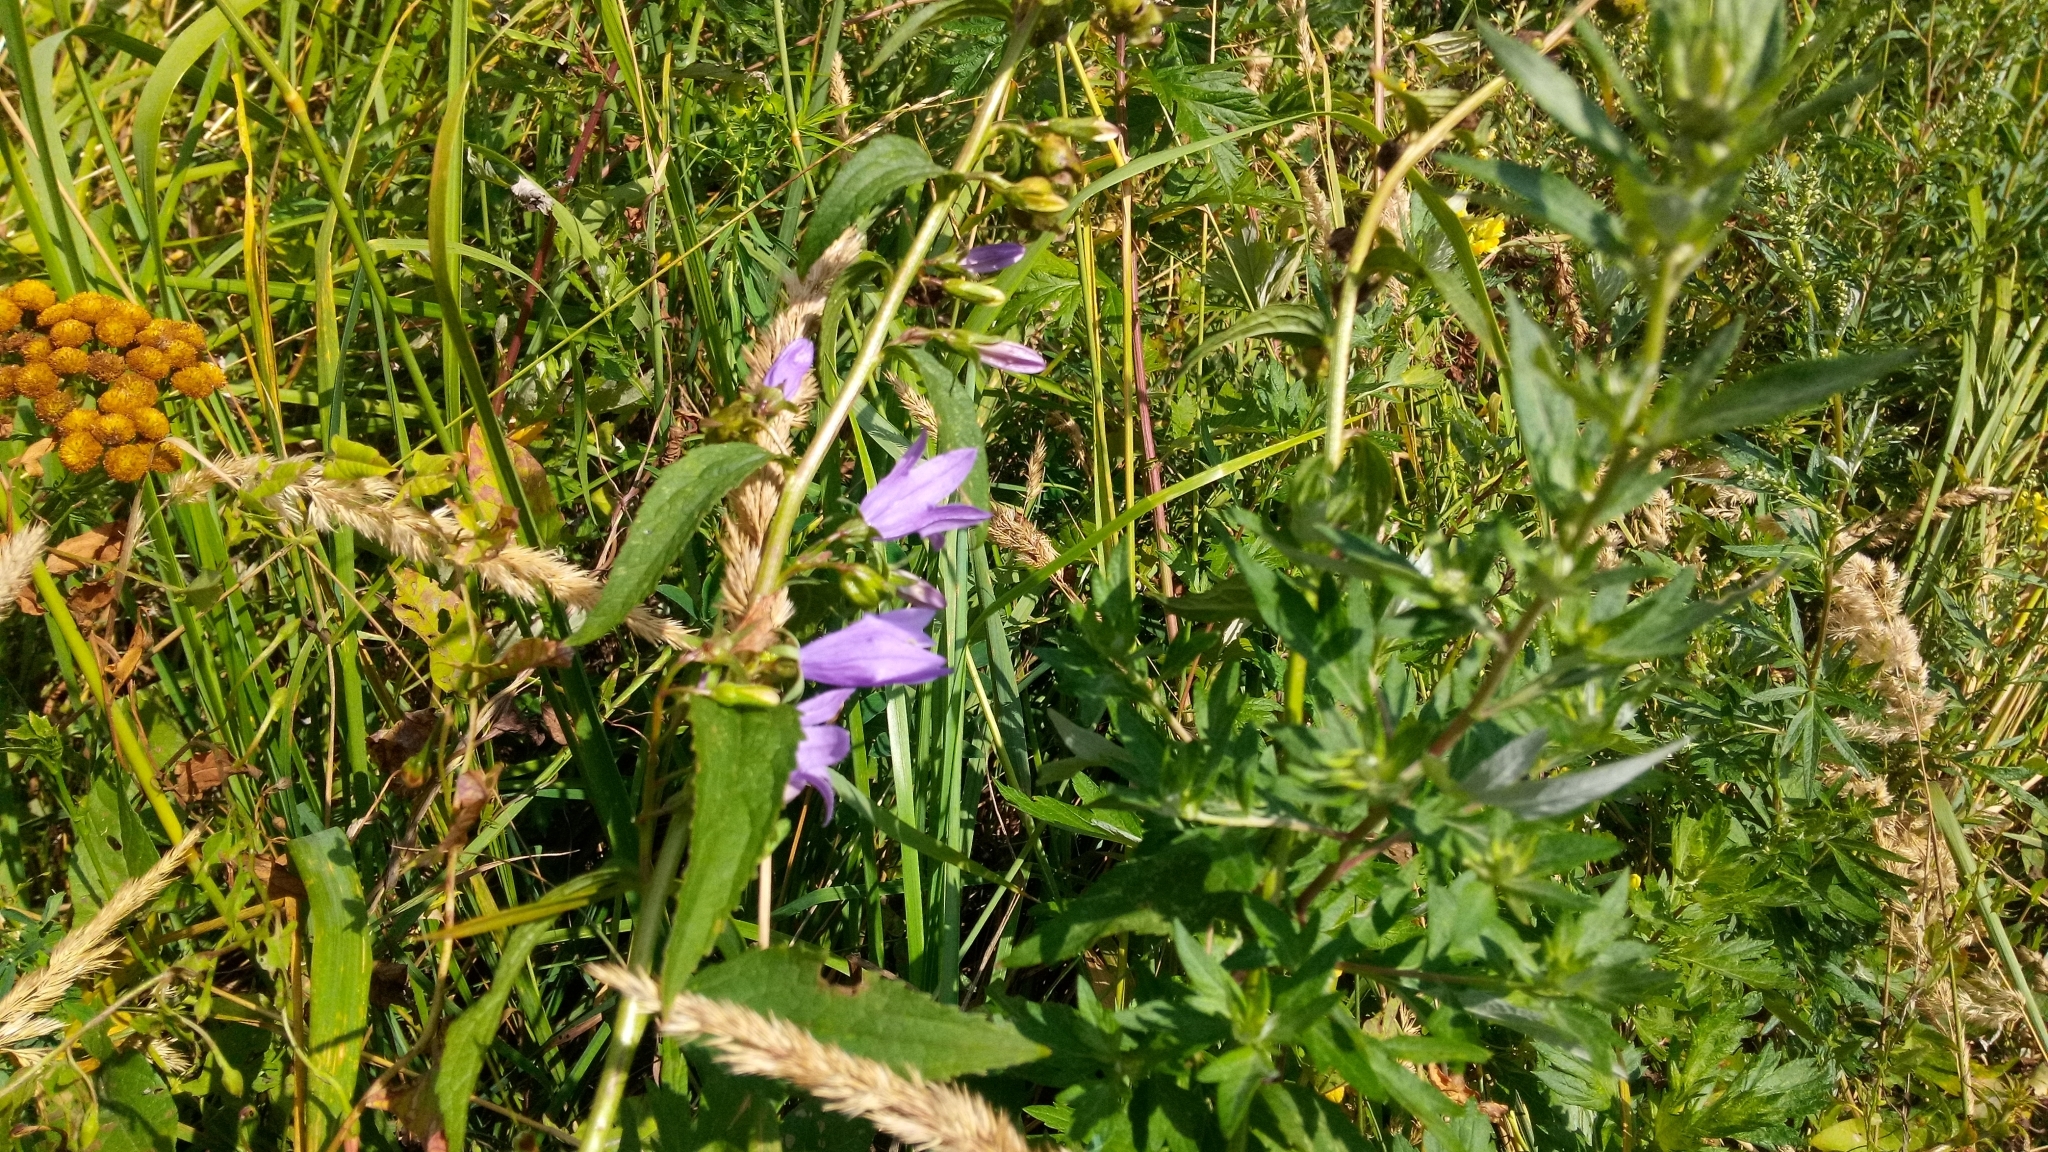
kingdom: Plantae
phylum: Tracheophyta
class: Magnoliopsida
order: Asterales
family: Campanulaceae
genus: Campanula
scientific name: Campanula rapunculoides
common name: Creeping bellflower
